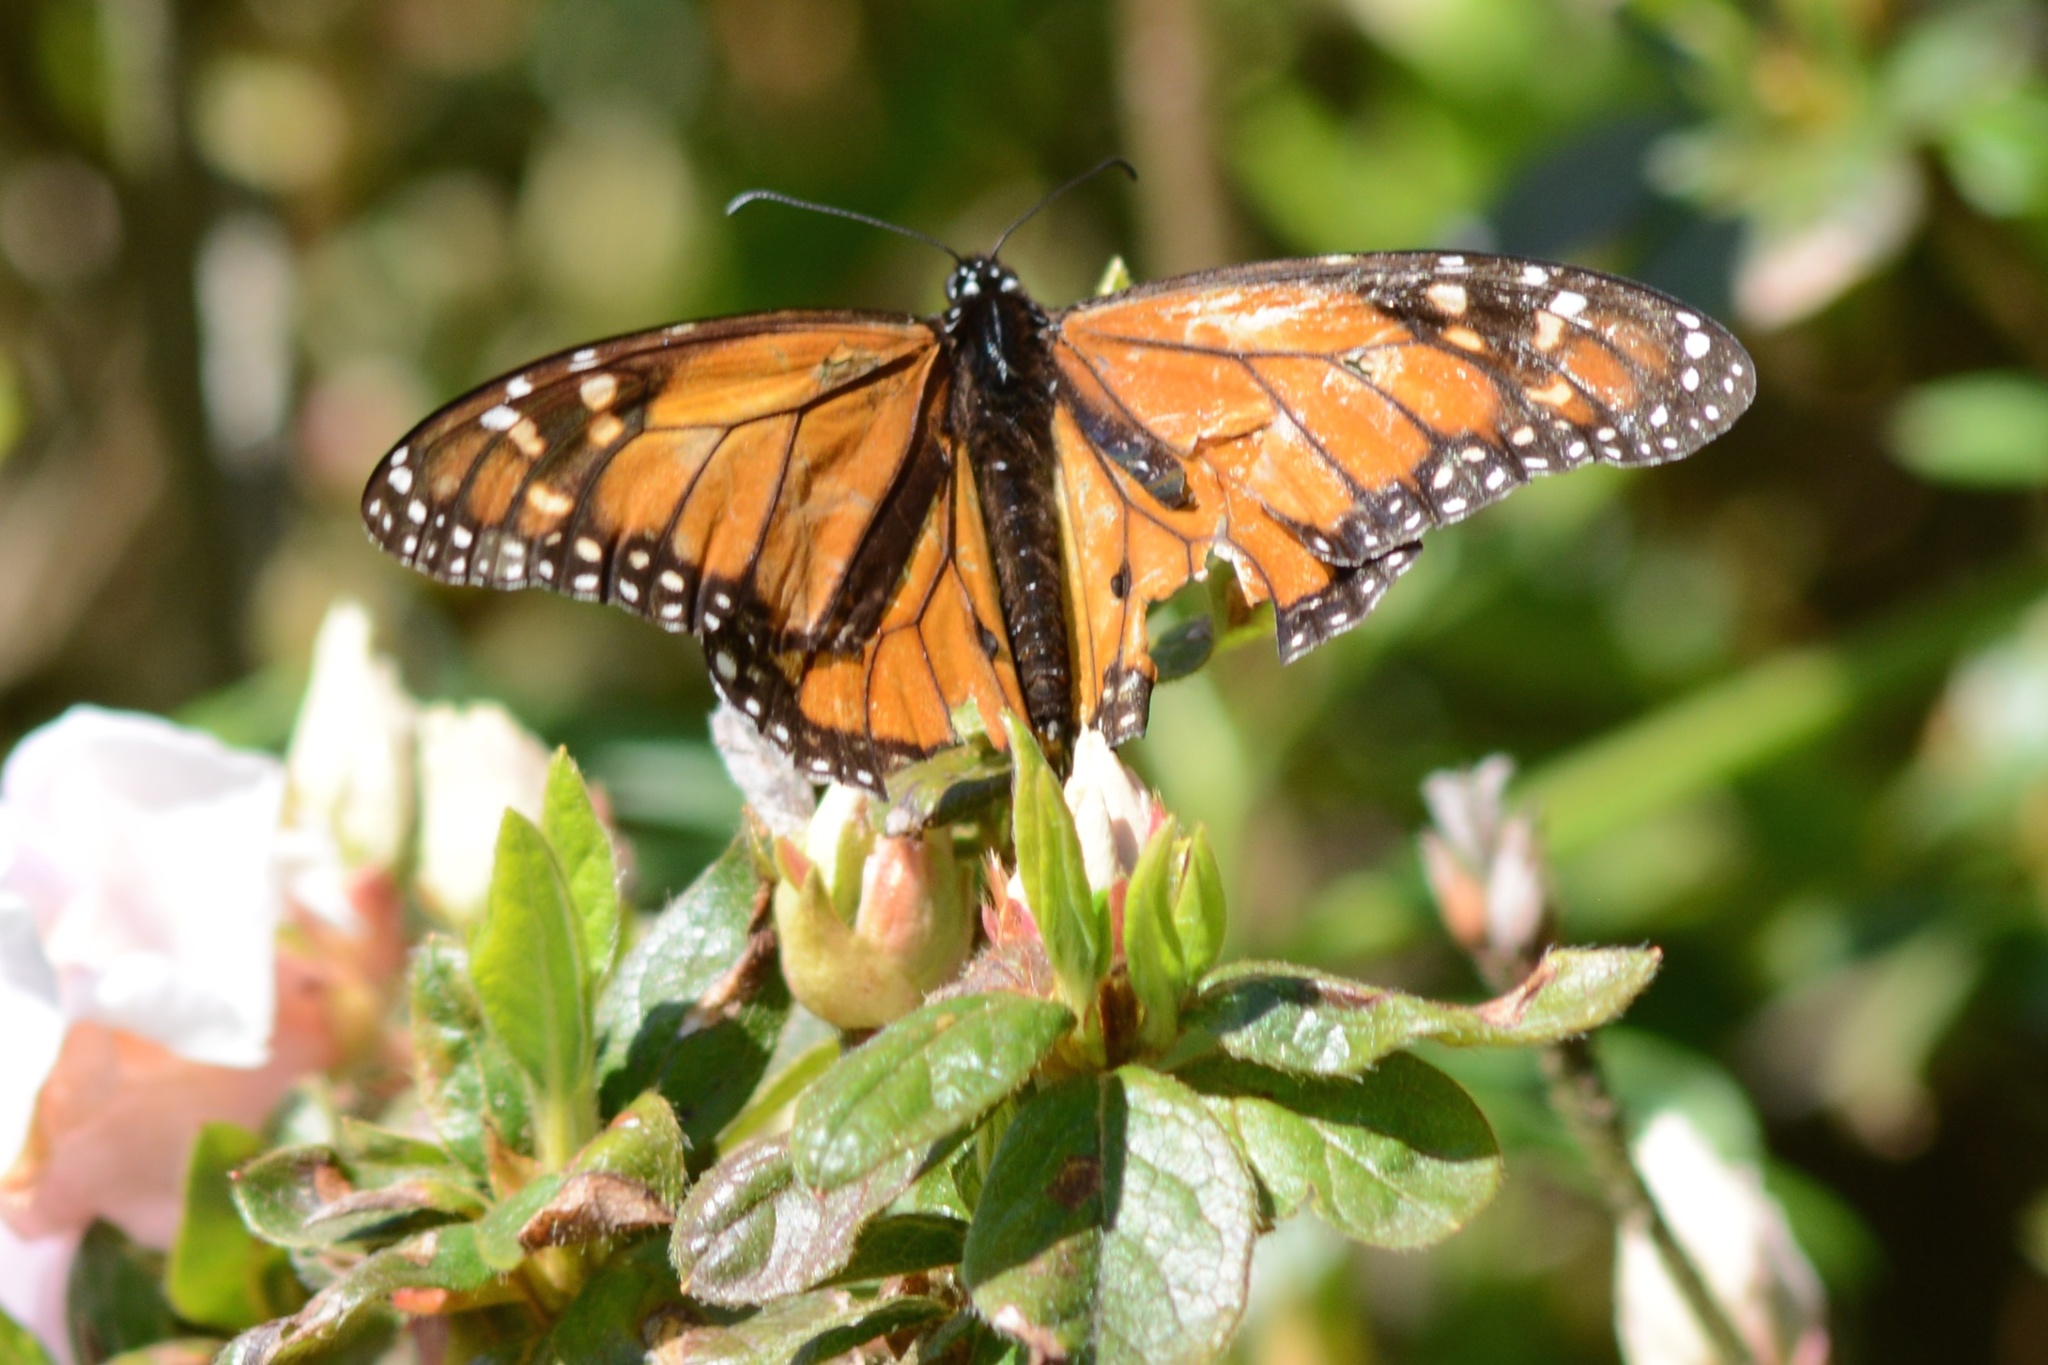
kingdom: Animalia
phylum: Arthropoda
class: Insecta
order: Lepidoptera
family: Nymphalidae
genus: Danaus
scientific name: Danaus plexippus
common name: Monarch
